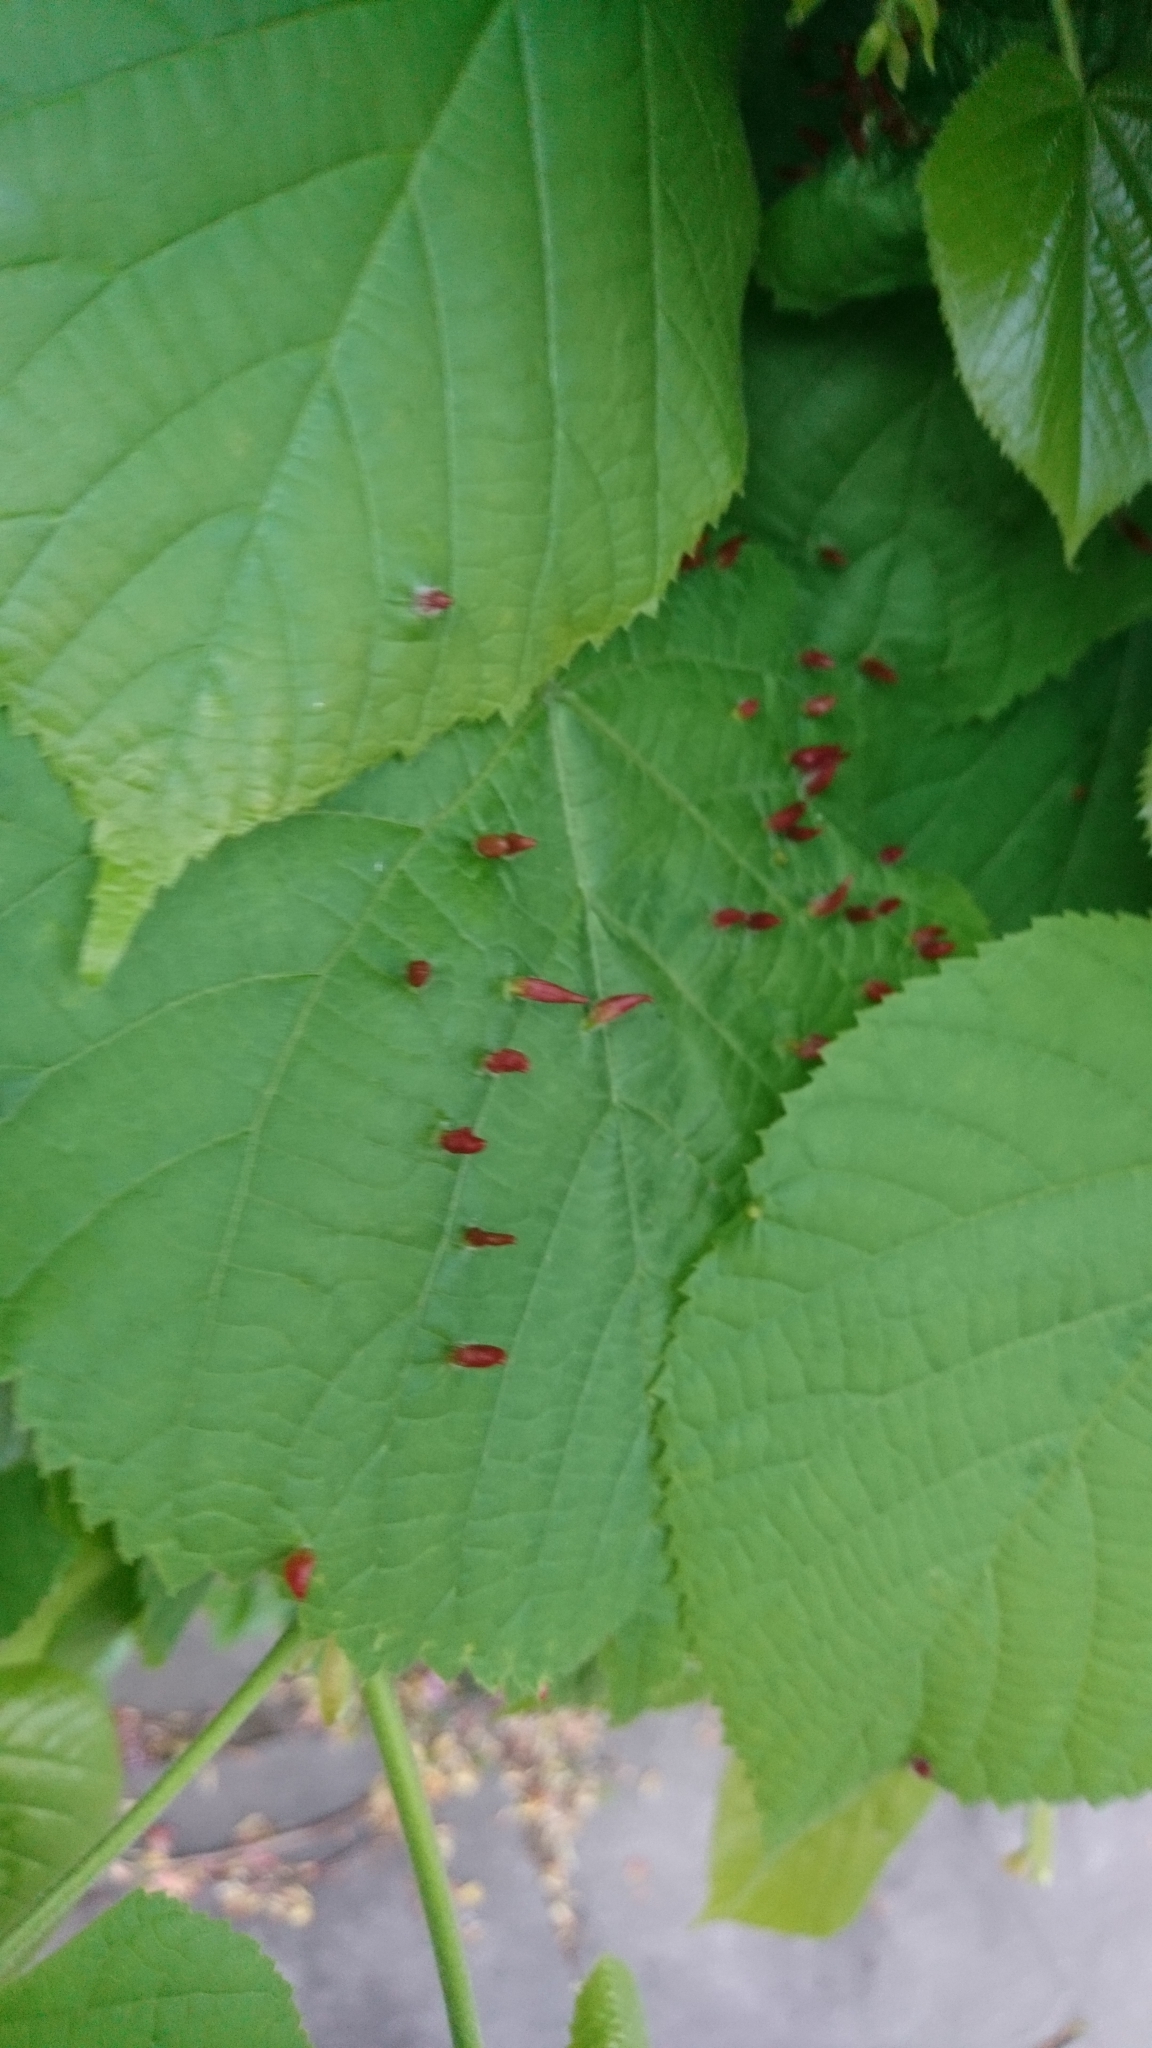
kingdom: Animalia
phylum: Arthropoda
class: Arachnida
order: Trombidiformes
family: Eriophyidae
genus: Eriophyes
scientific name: Eriophyes tiliae
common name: Red nail gall mite
